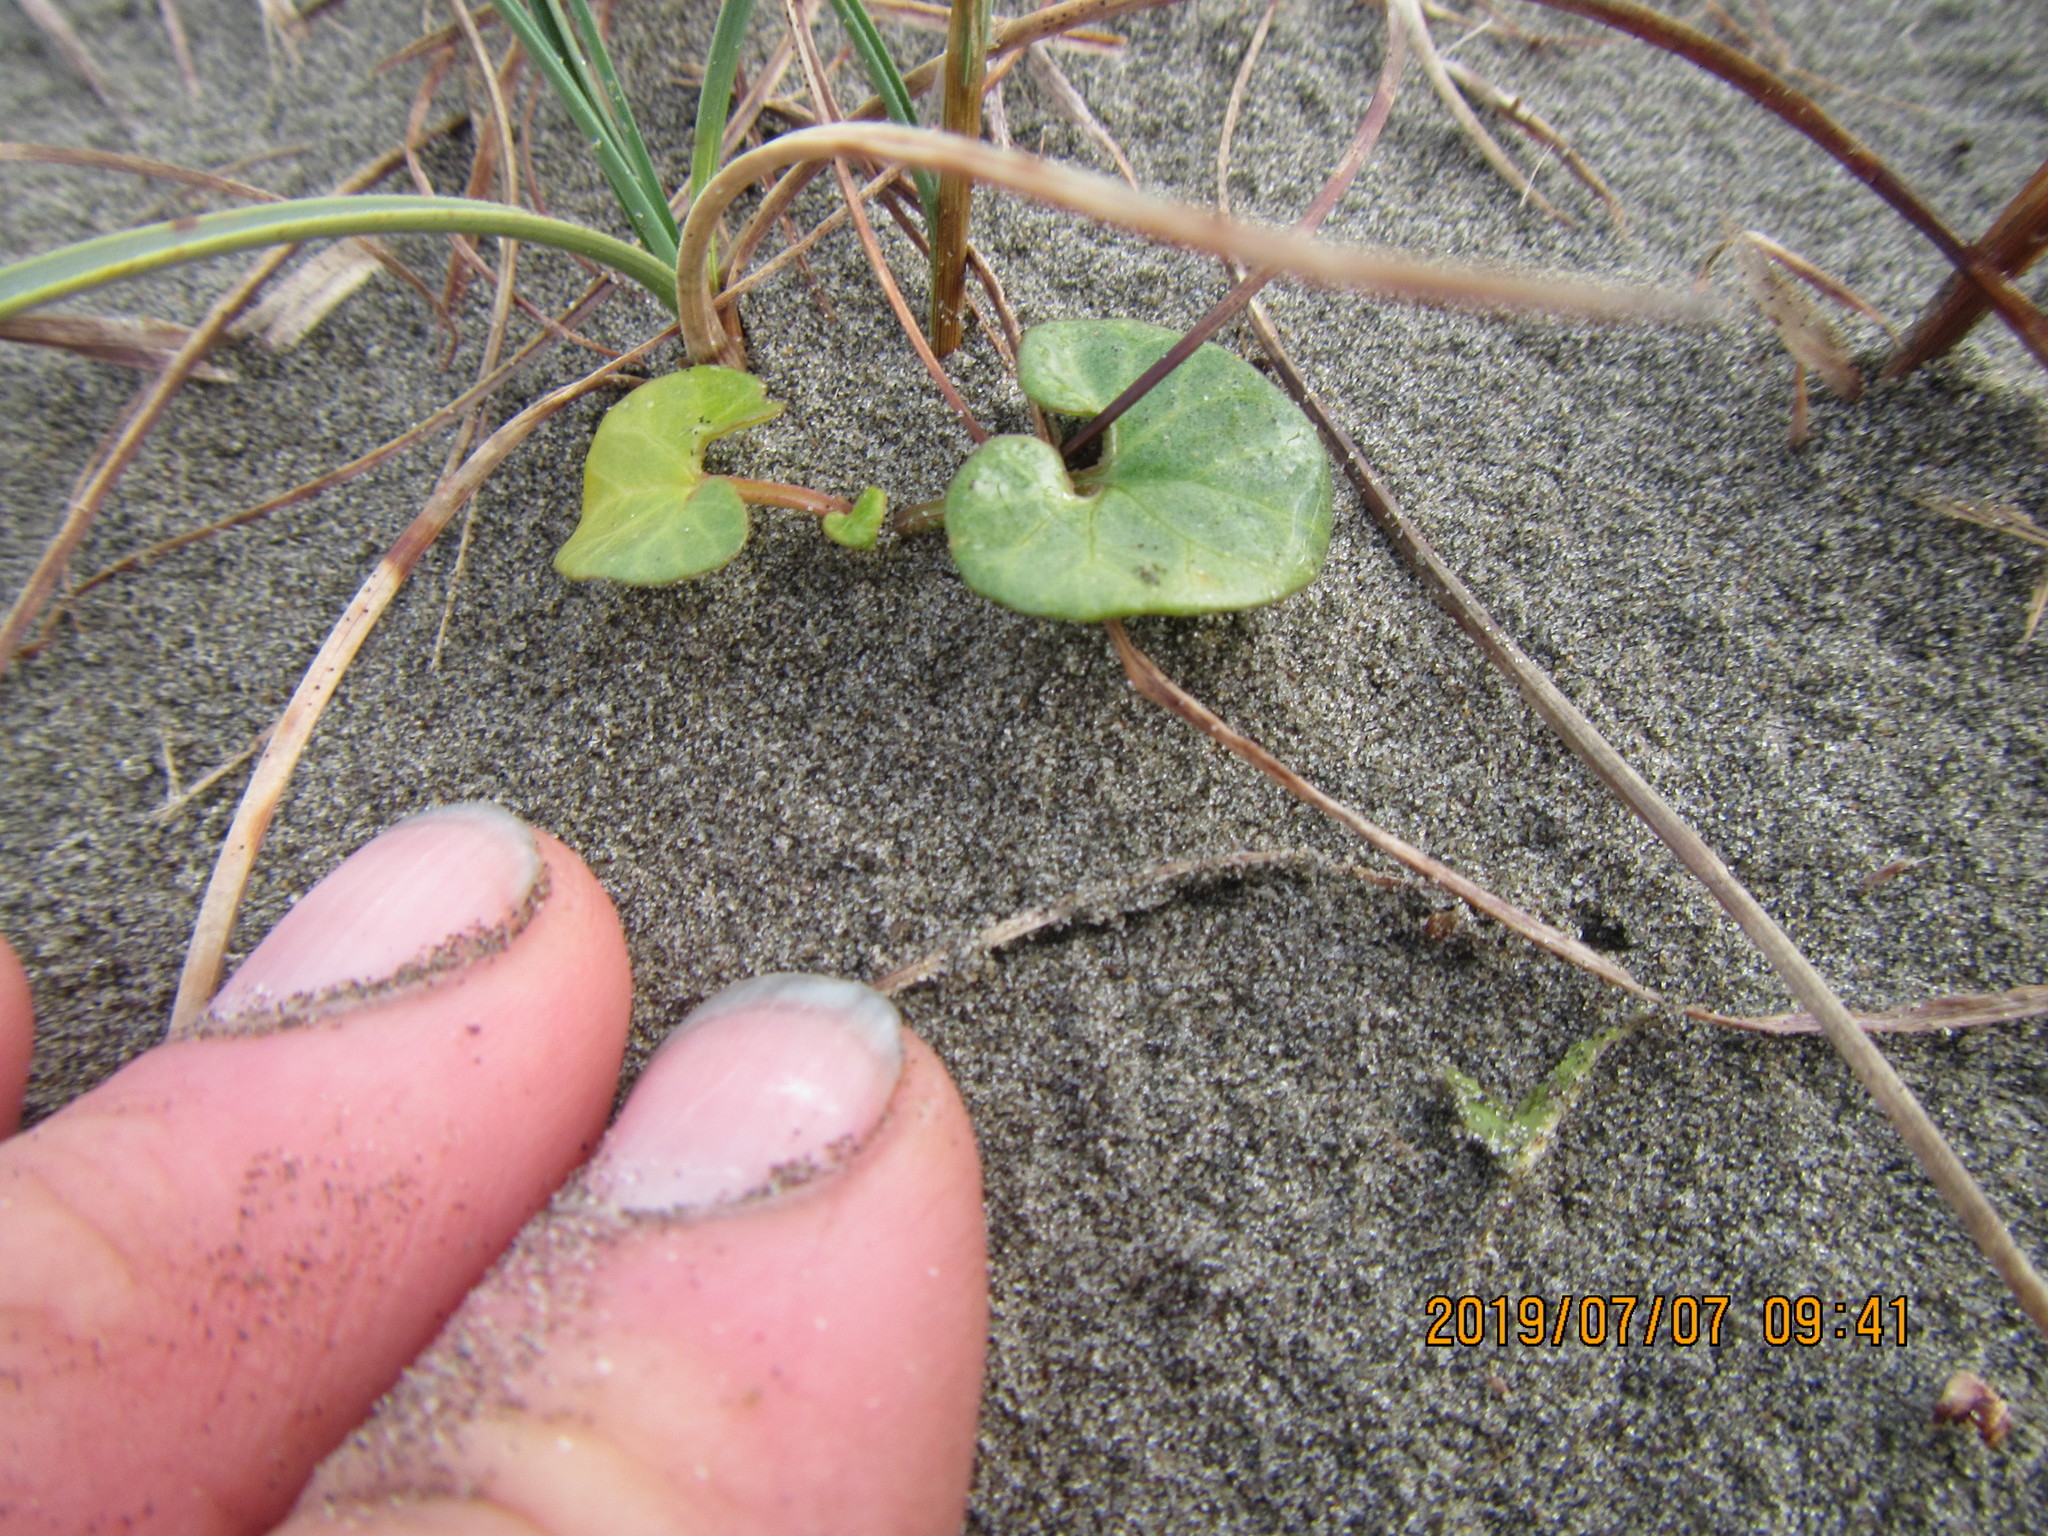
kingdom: Plantae
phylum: Tracheophyta
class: Magnoliopsida
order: Solanales
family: Convolvulaceae
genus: Calystegia
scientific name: Calystegia soldanella
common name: Sea bindweed
